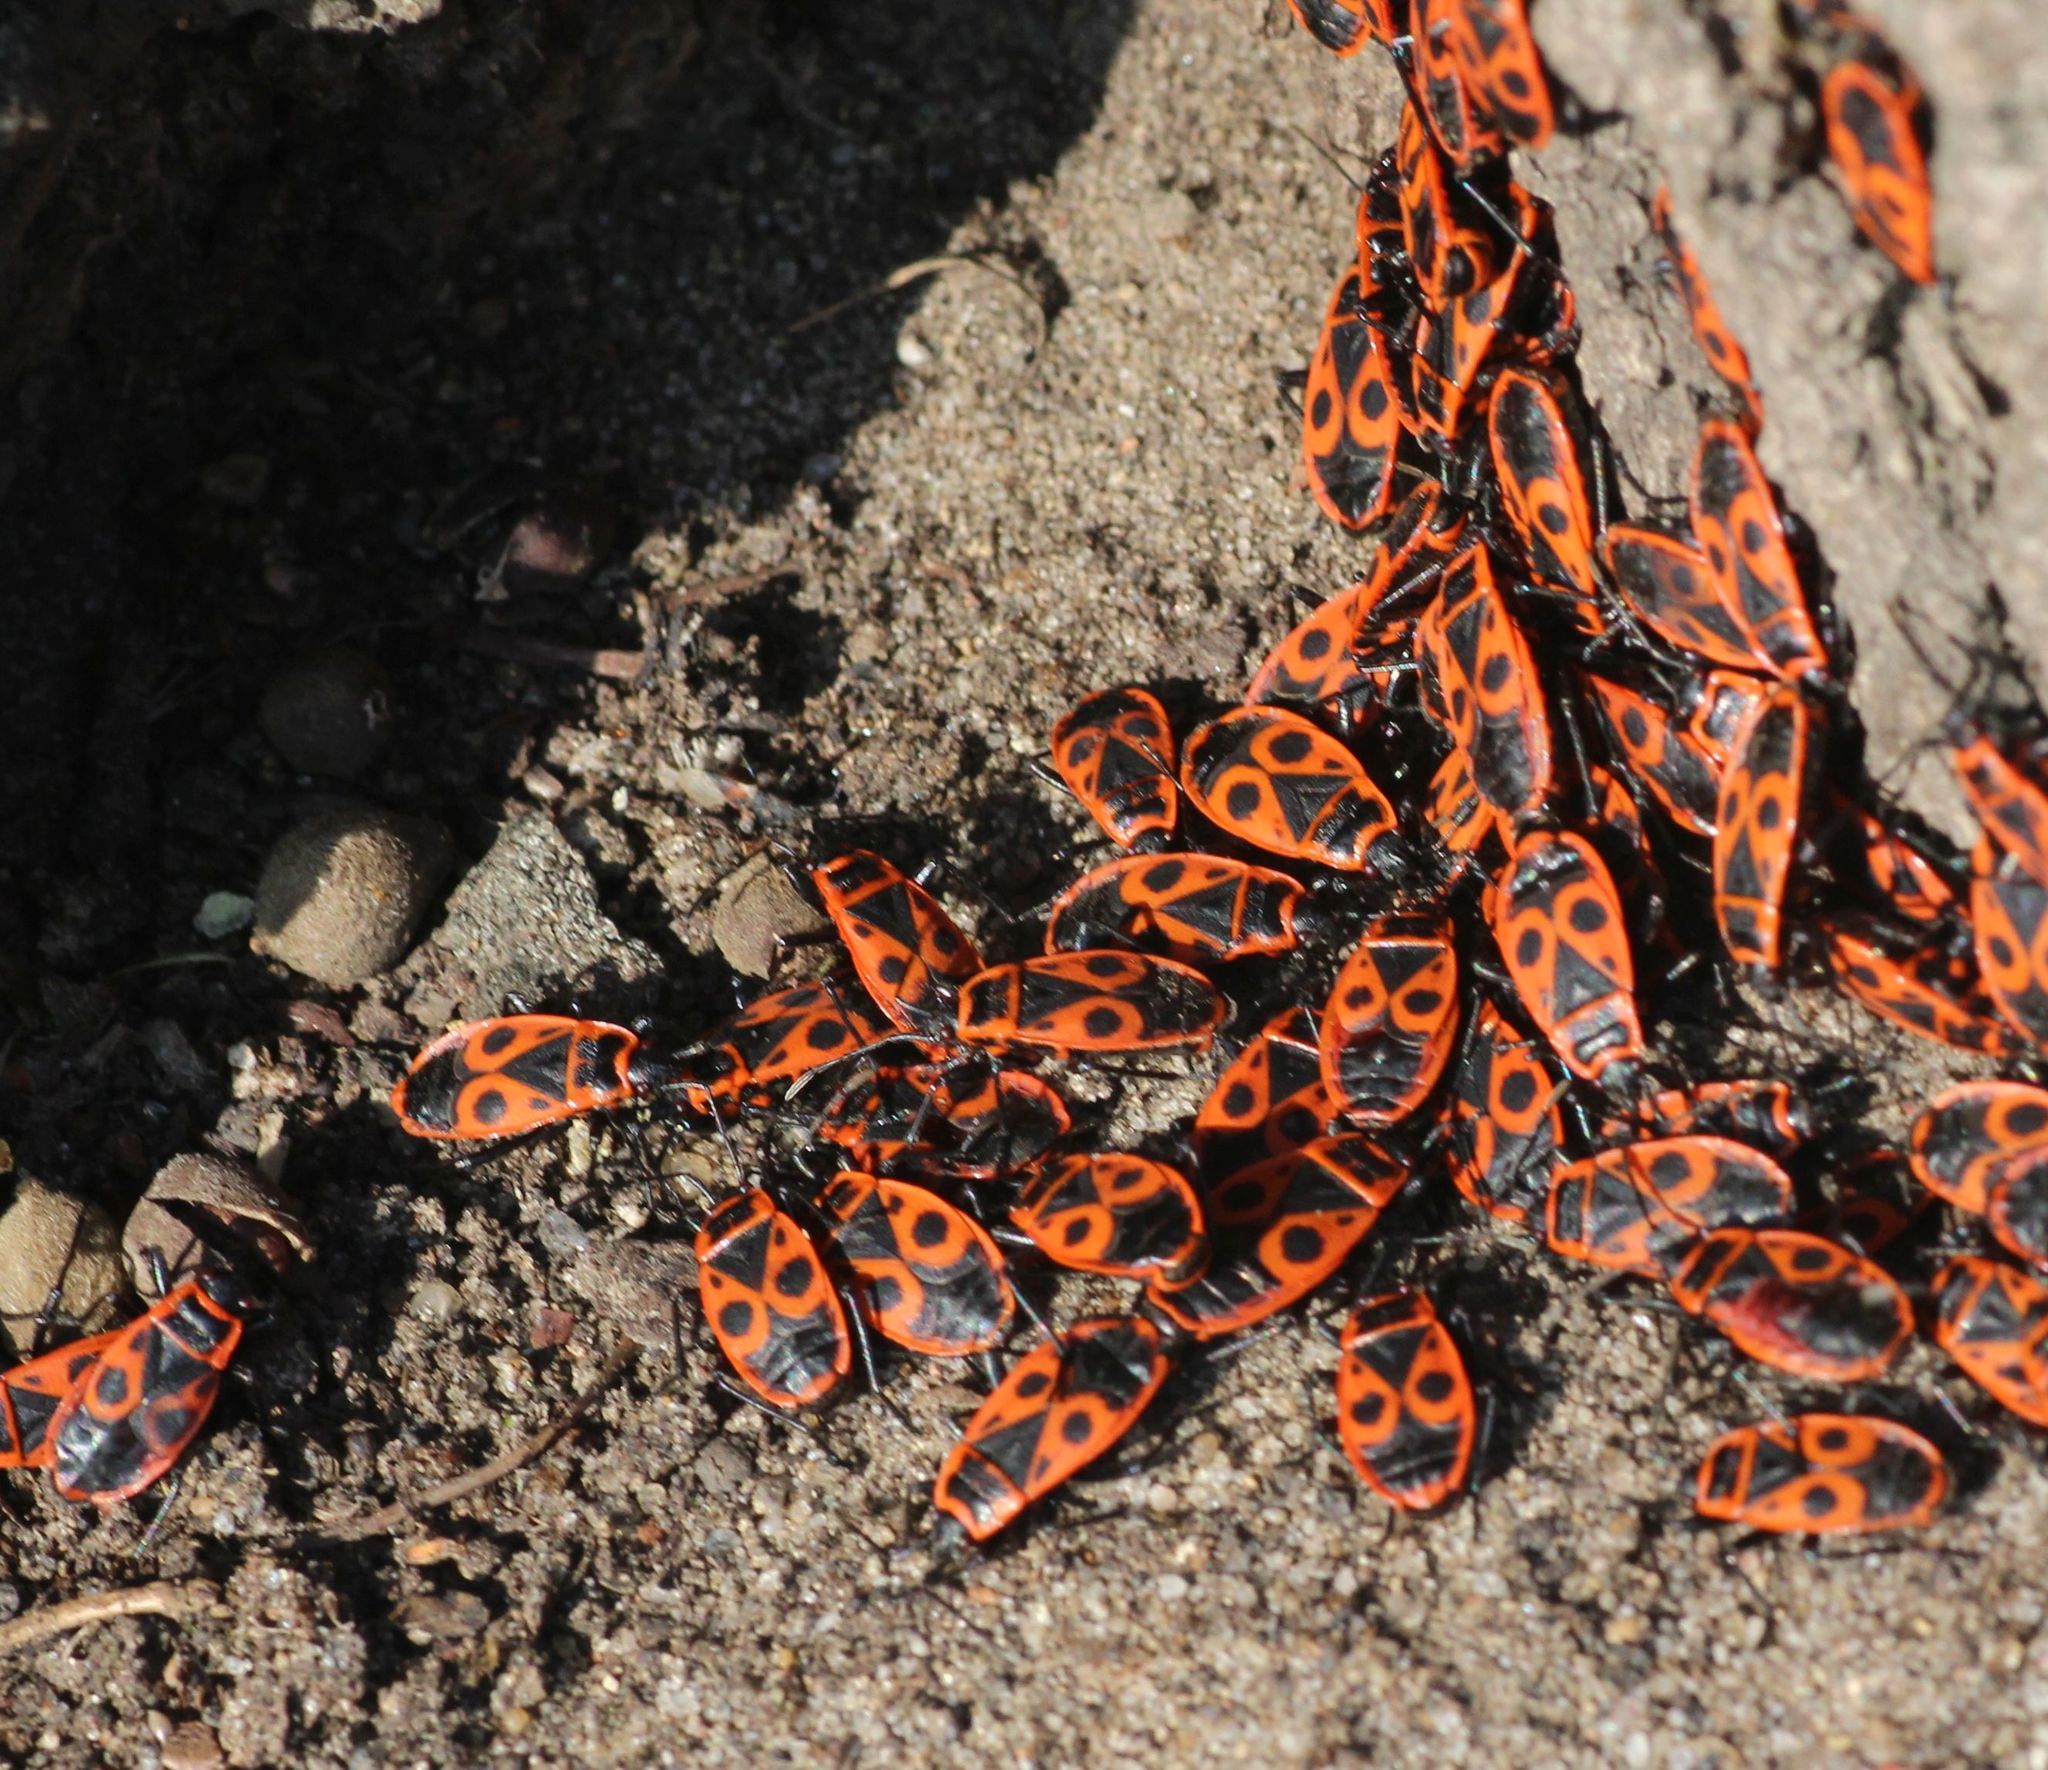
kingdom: Animalia
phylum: Arthropoda
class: Insecta
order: Hemiptera
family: Pyrrhocoridae
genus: Pyrrhocoris
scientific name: Pyrrhocoris apterus
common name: Firebug
